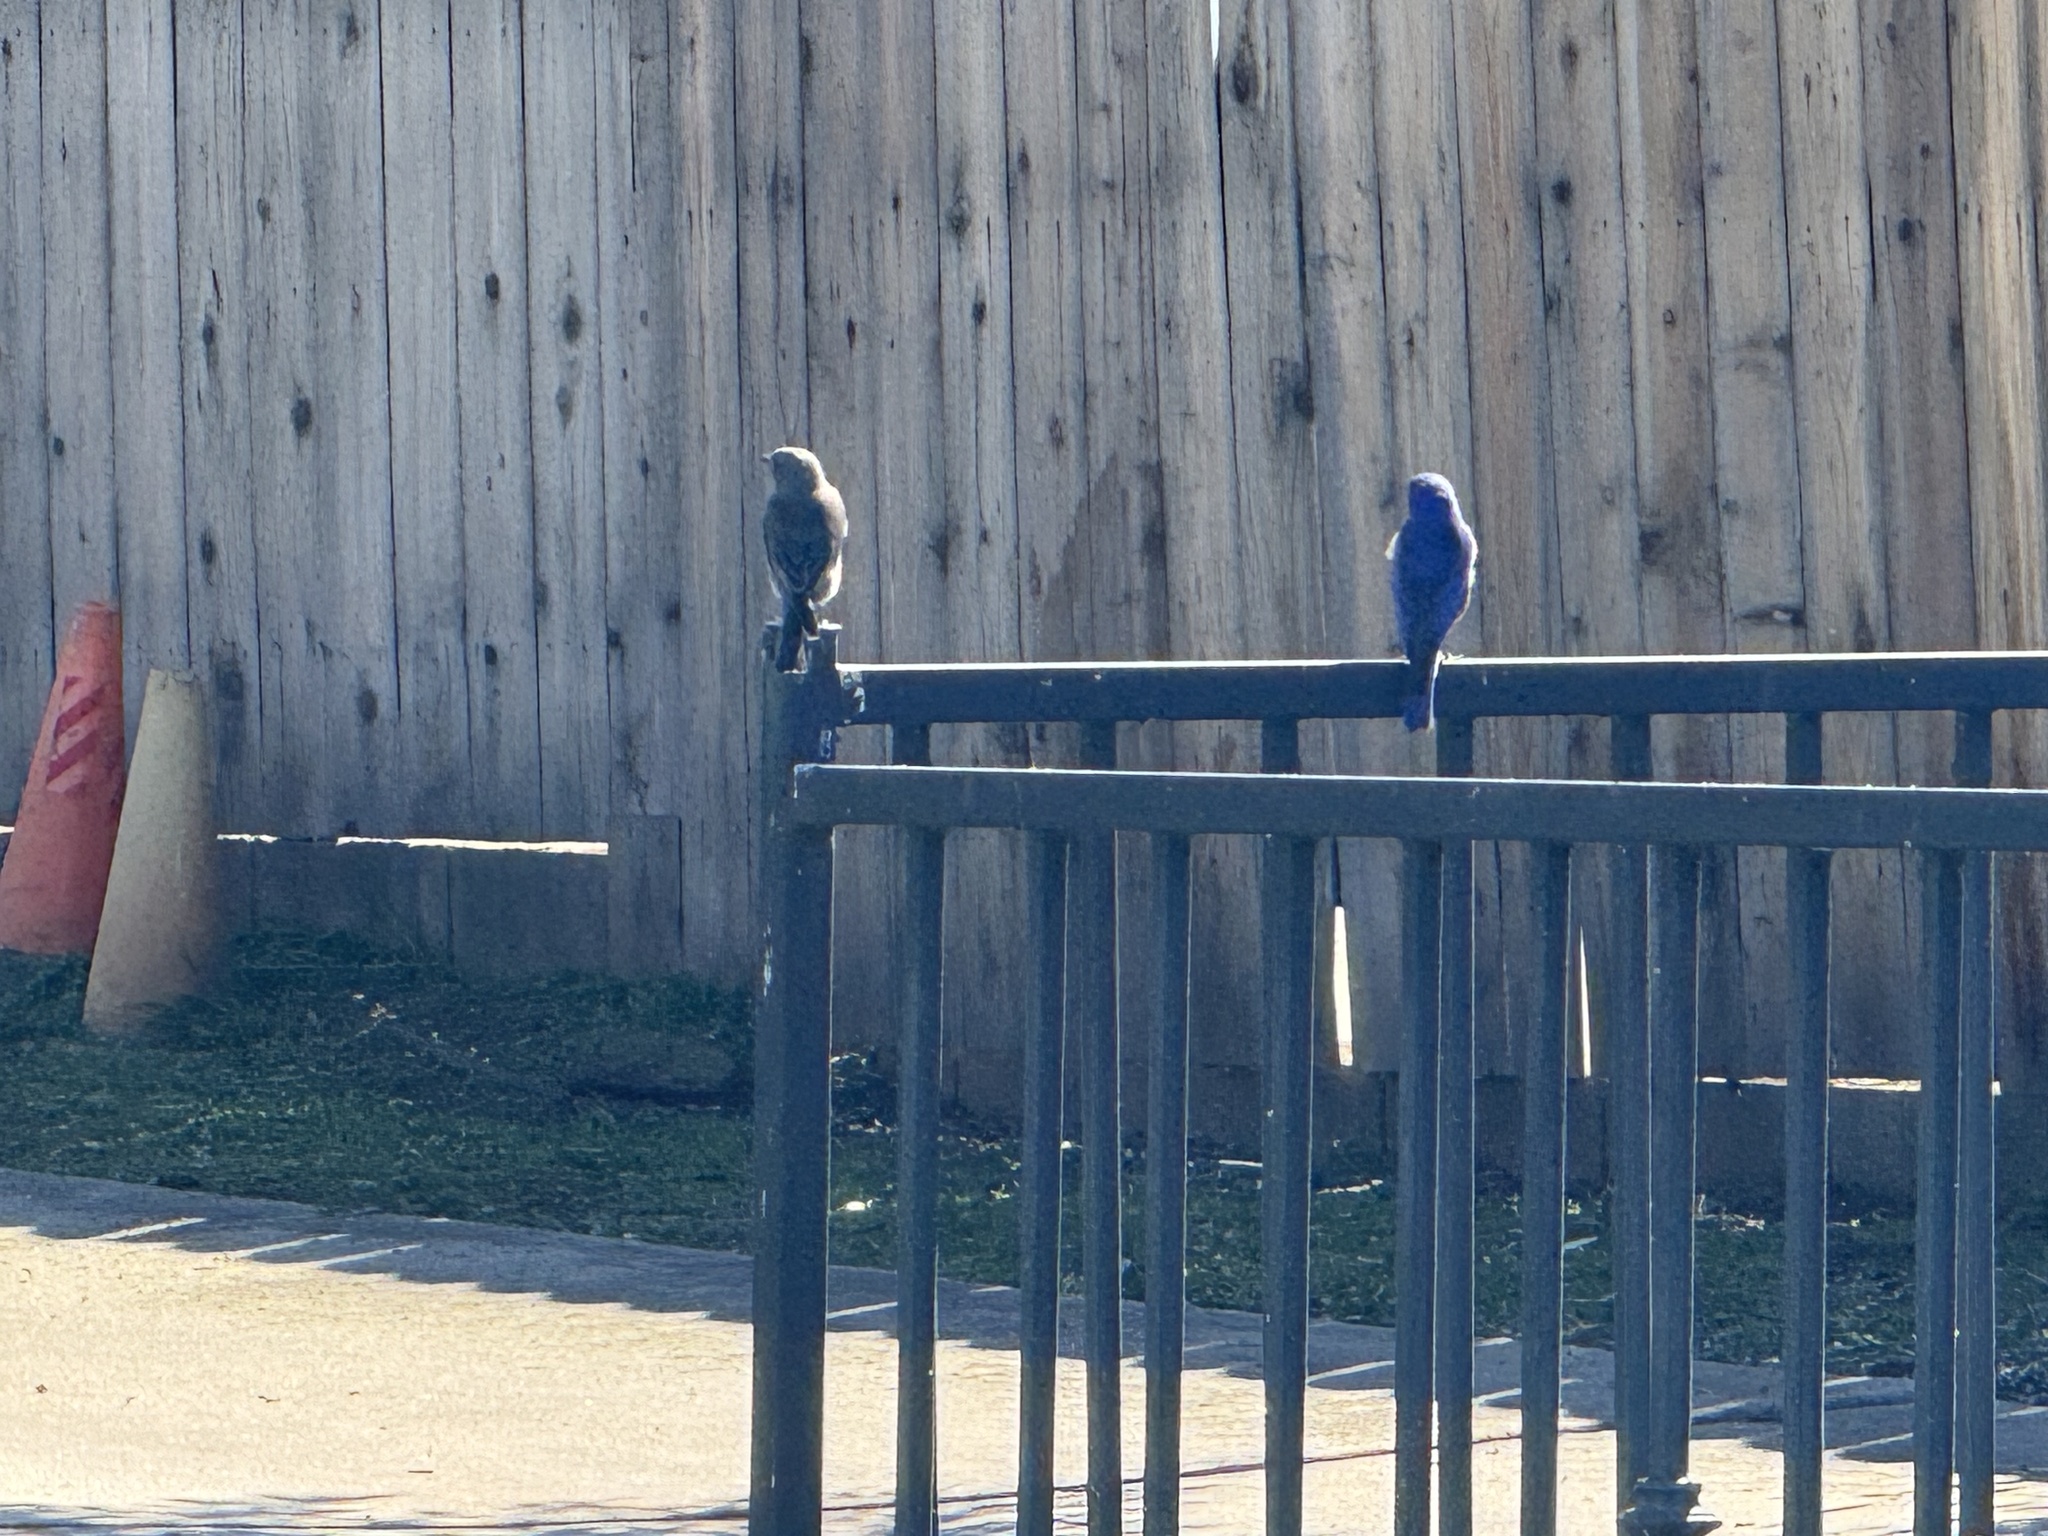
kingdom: Animalia
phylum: Chordata
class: Aves
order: Passeriformes
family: Turdidae
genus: Sialia
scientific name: Sialia mexicana
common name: Western bluebird
